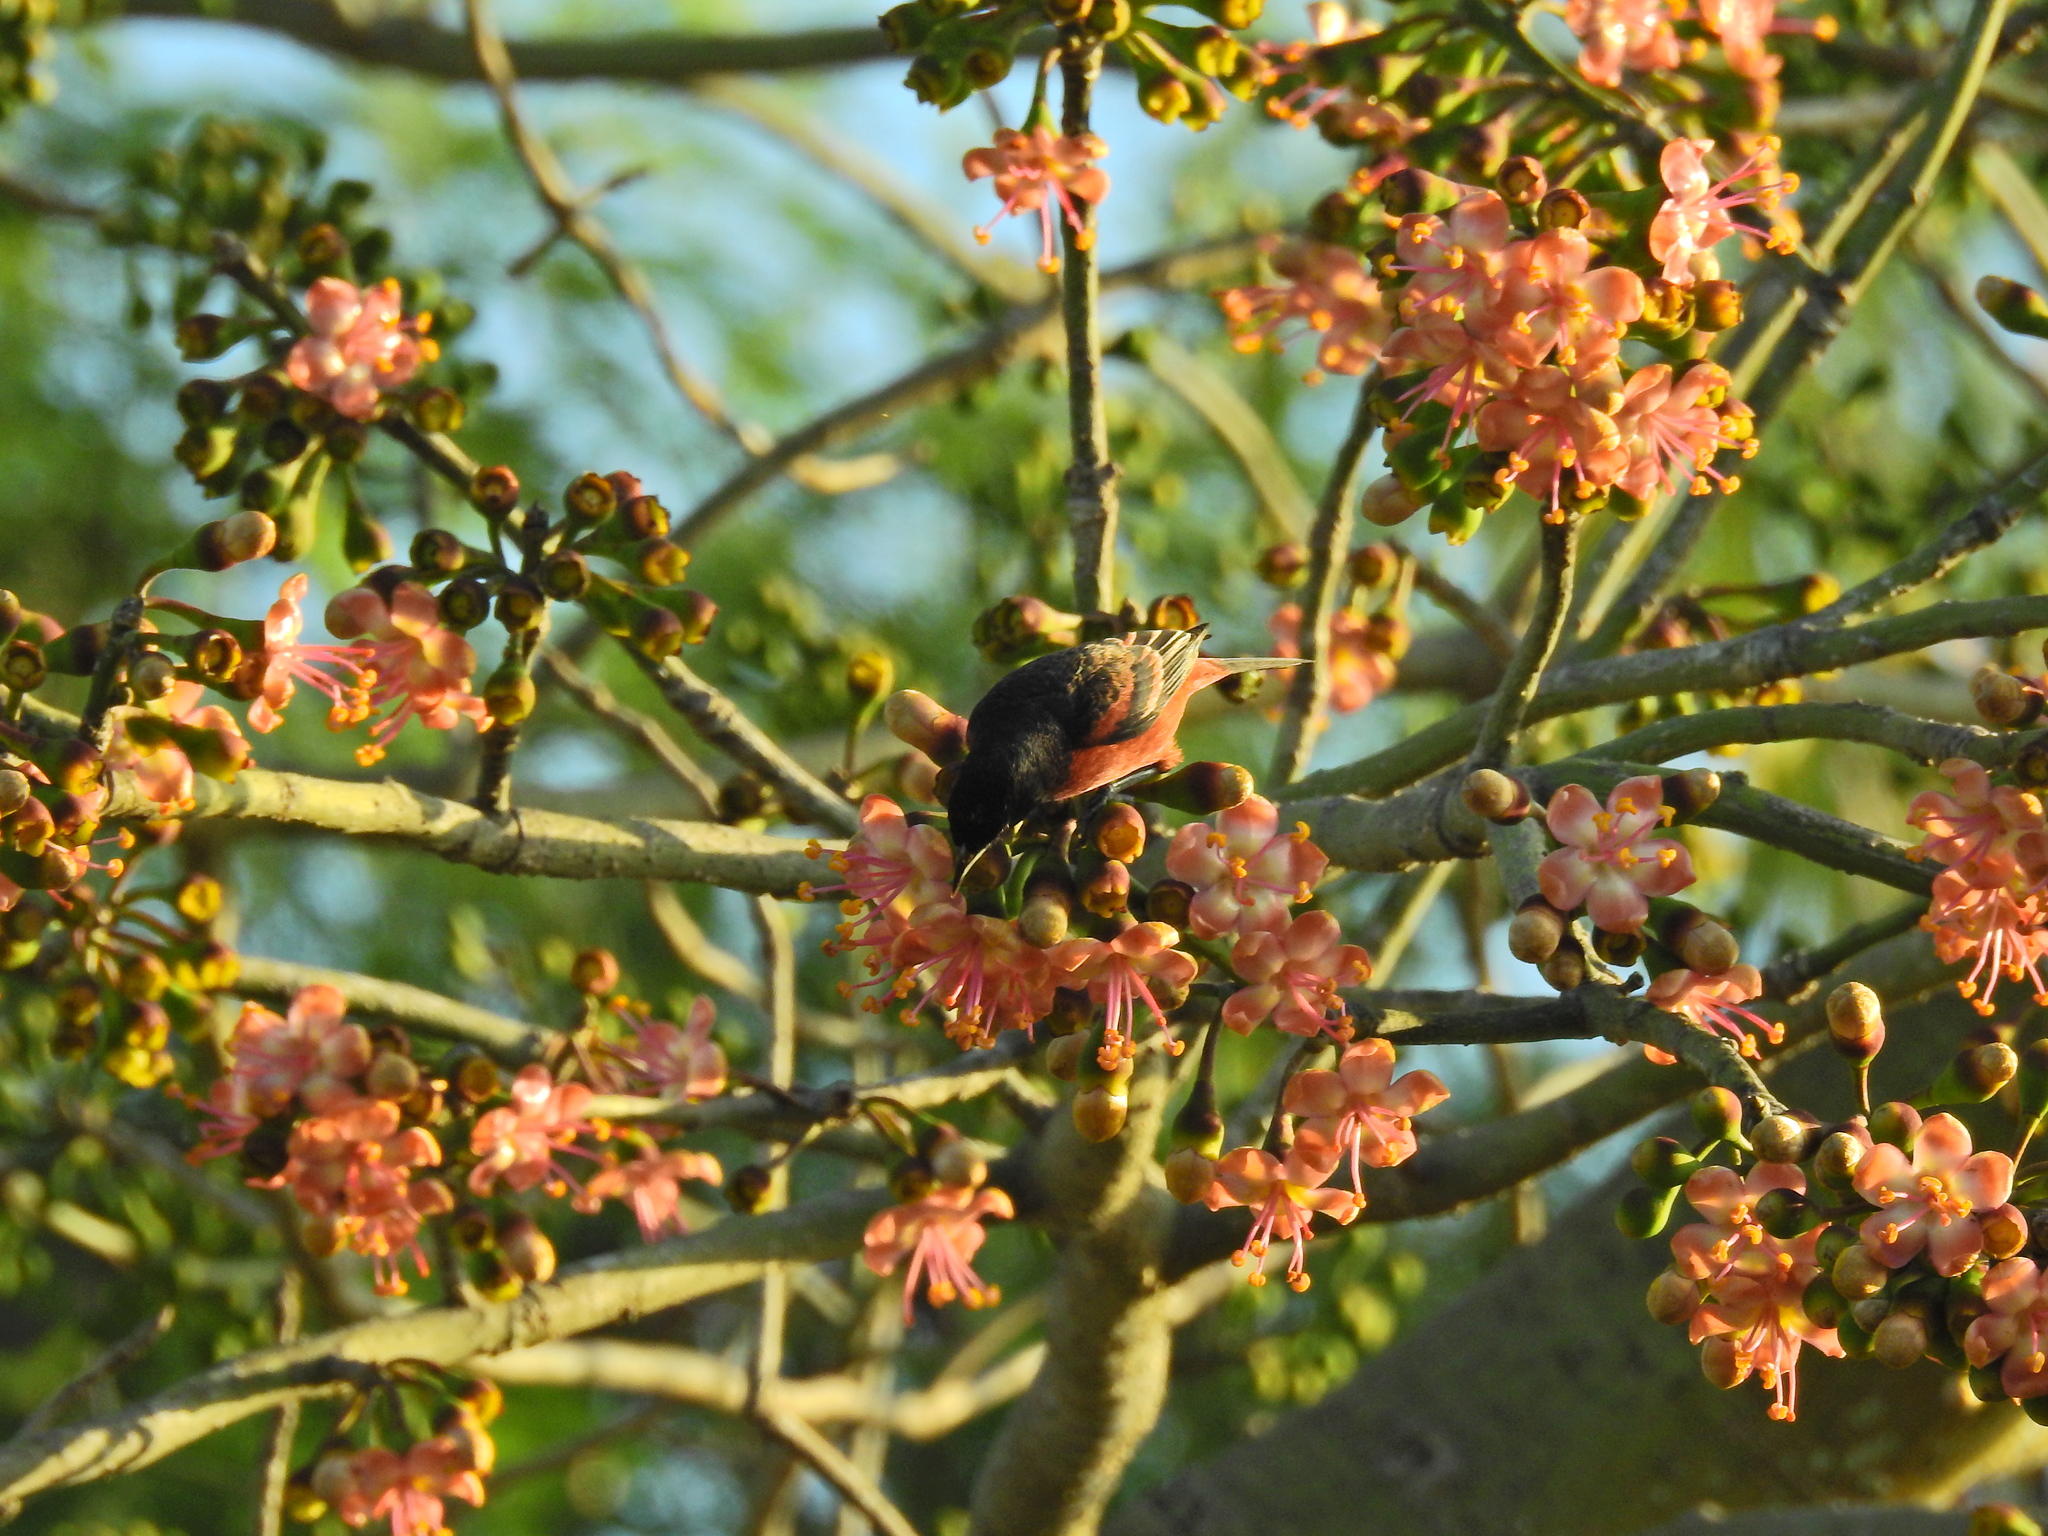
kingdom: Animalia
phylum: Chordata
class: Aves
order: Passeriformes
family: Icteridae
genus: Icterus
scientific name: Icterus galbula
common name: Baltimore oriole
